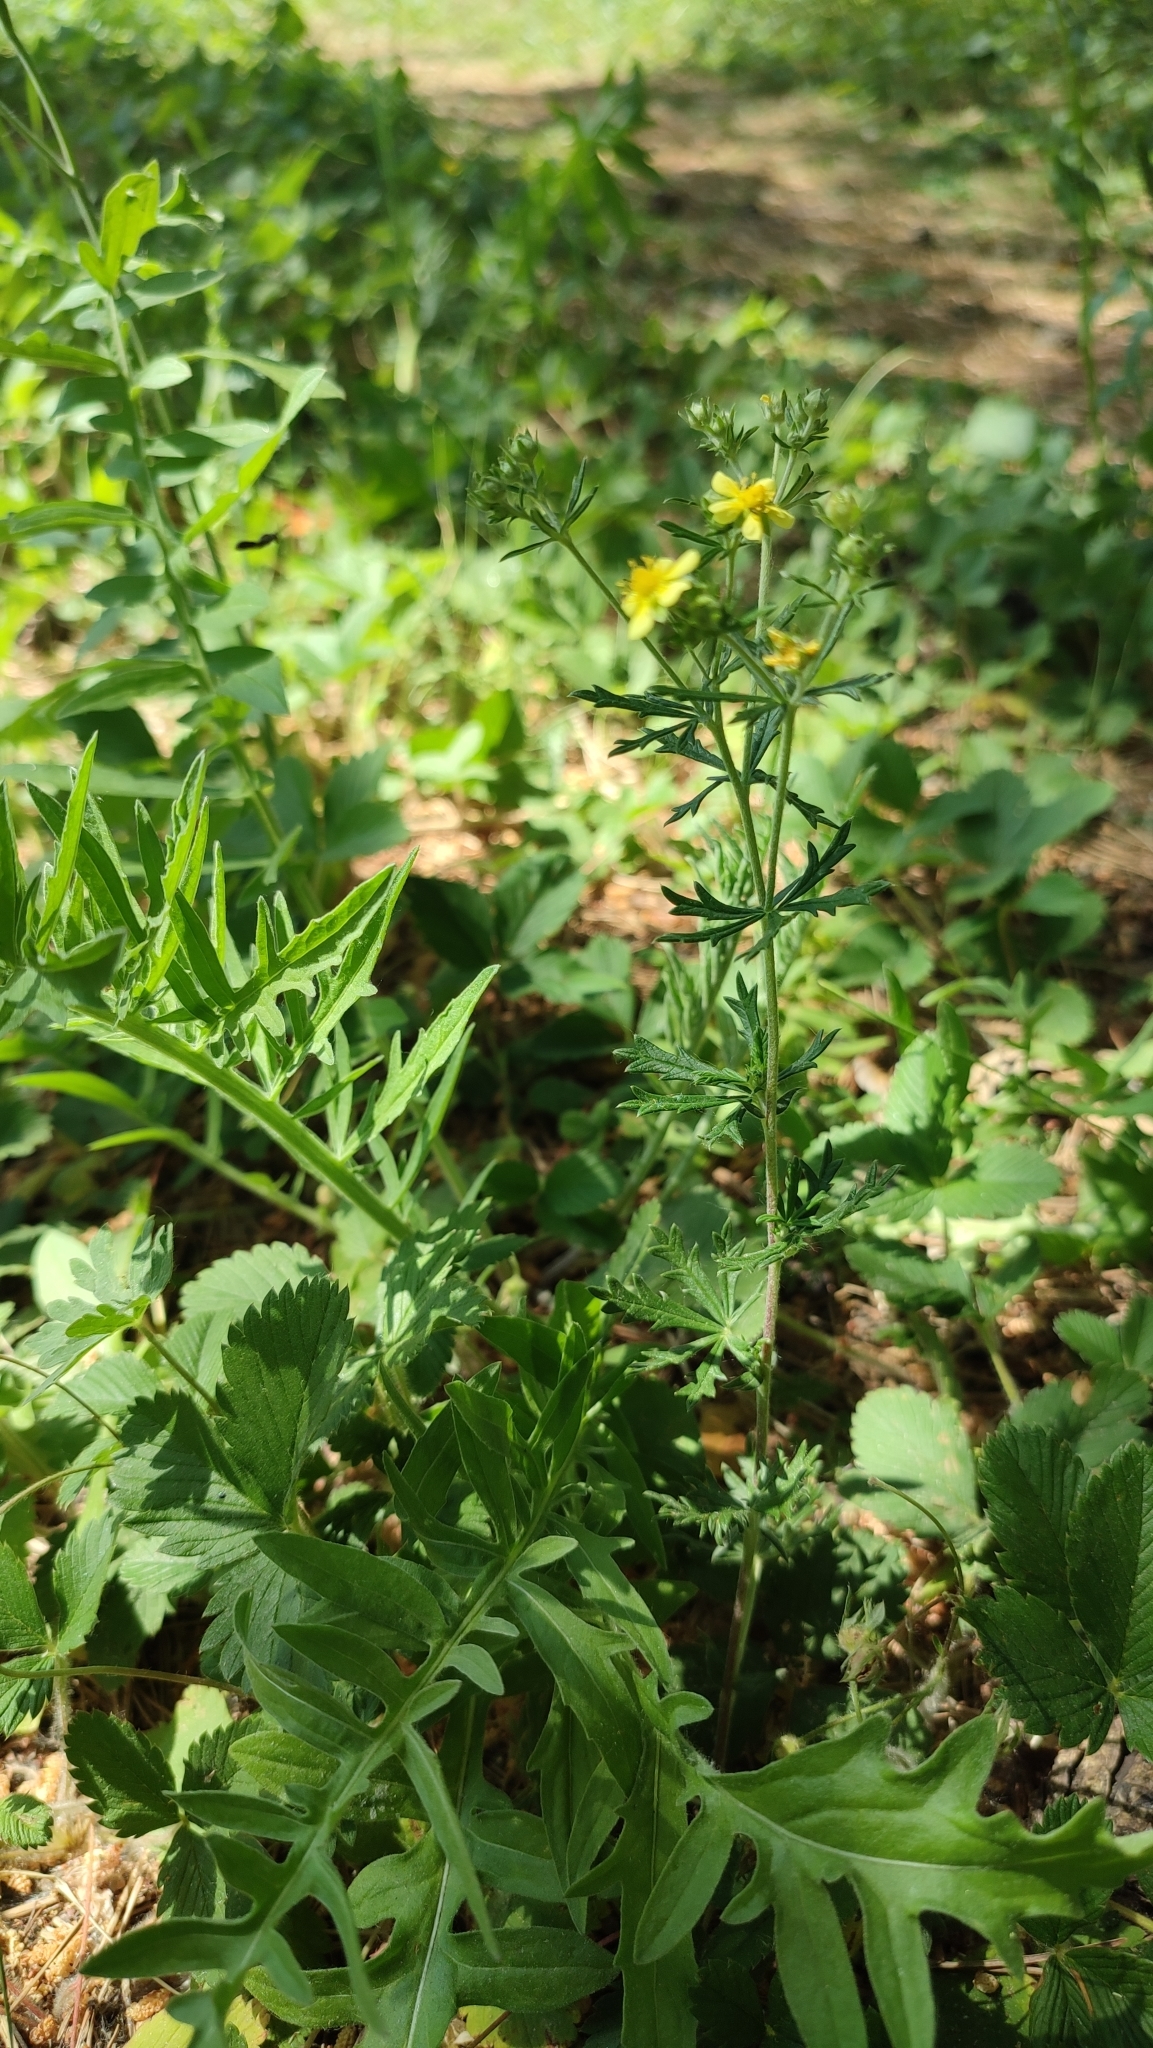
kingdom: Plantae
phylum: Tracheophyta
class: Magnoliopsida
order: Rosales
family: Rosaceae
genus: Potentilla
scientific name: Potentilla argentea
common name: Hoary cinquefoil
